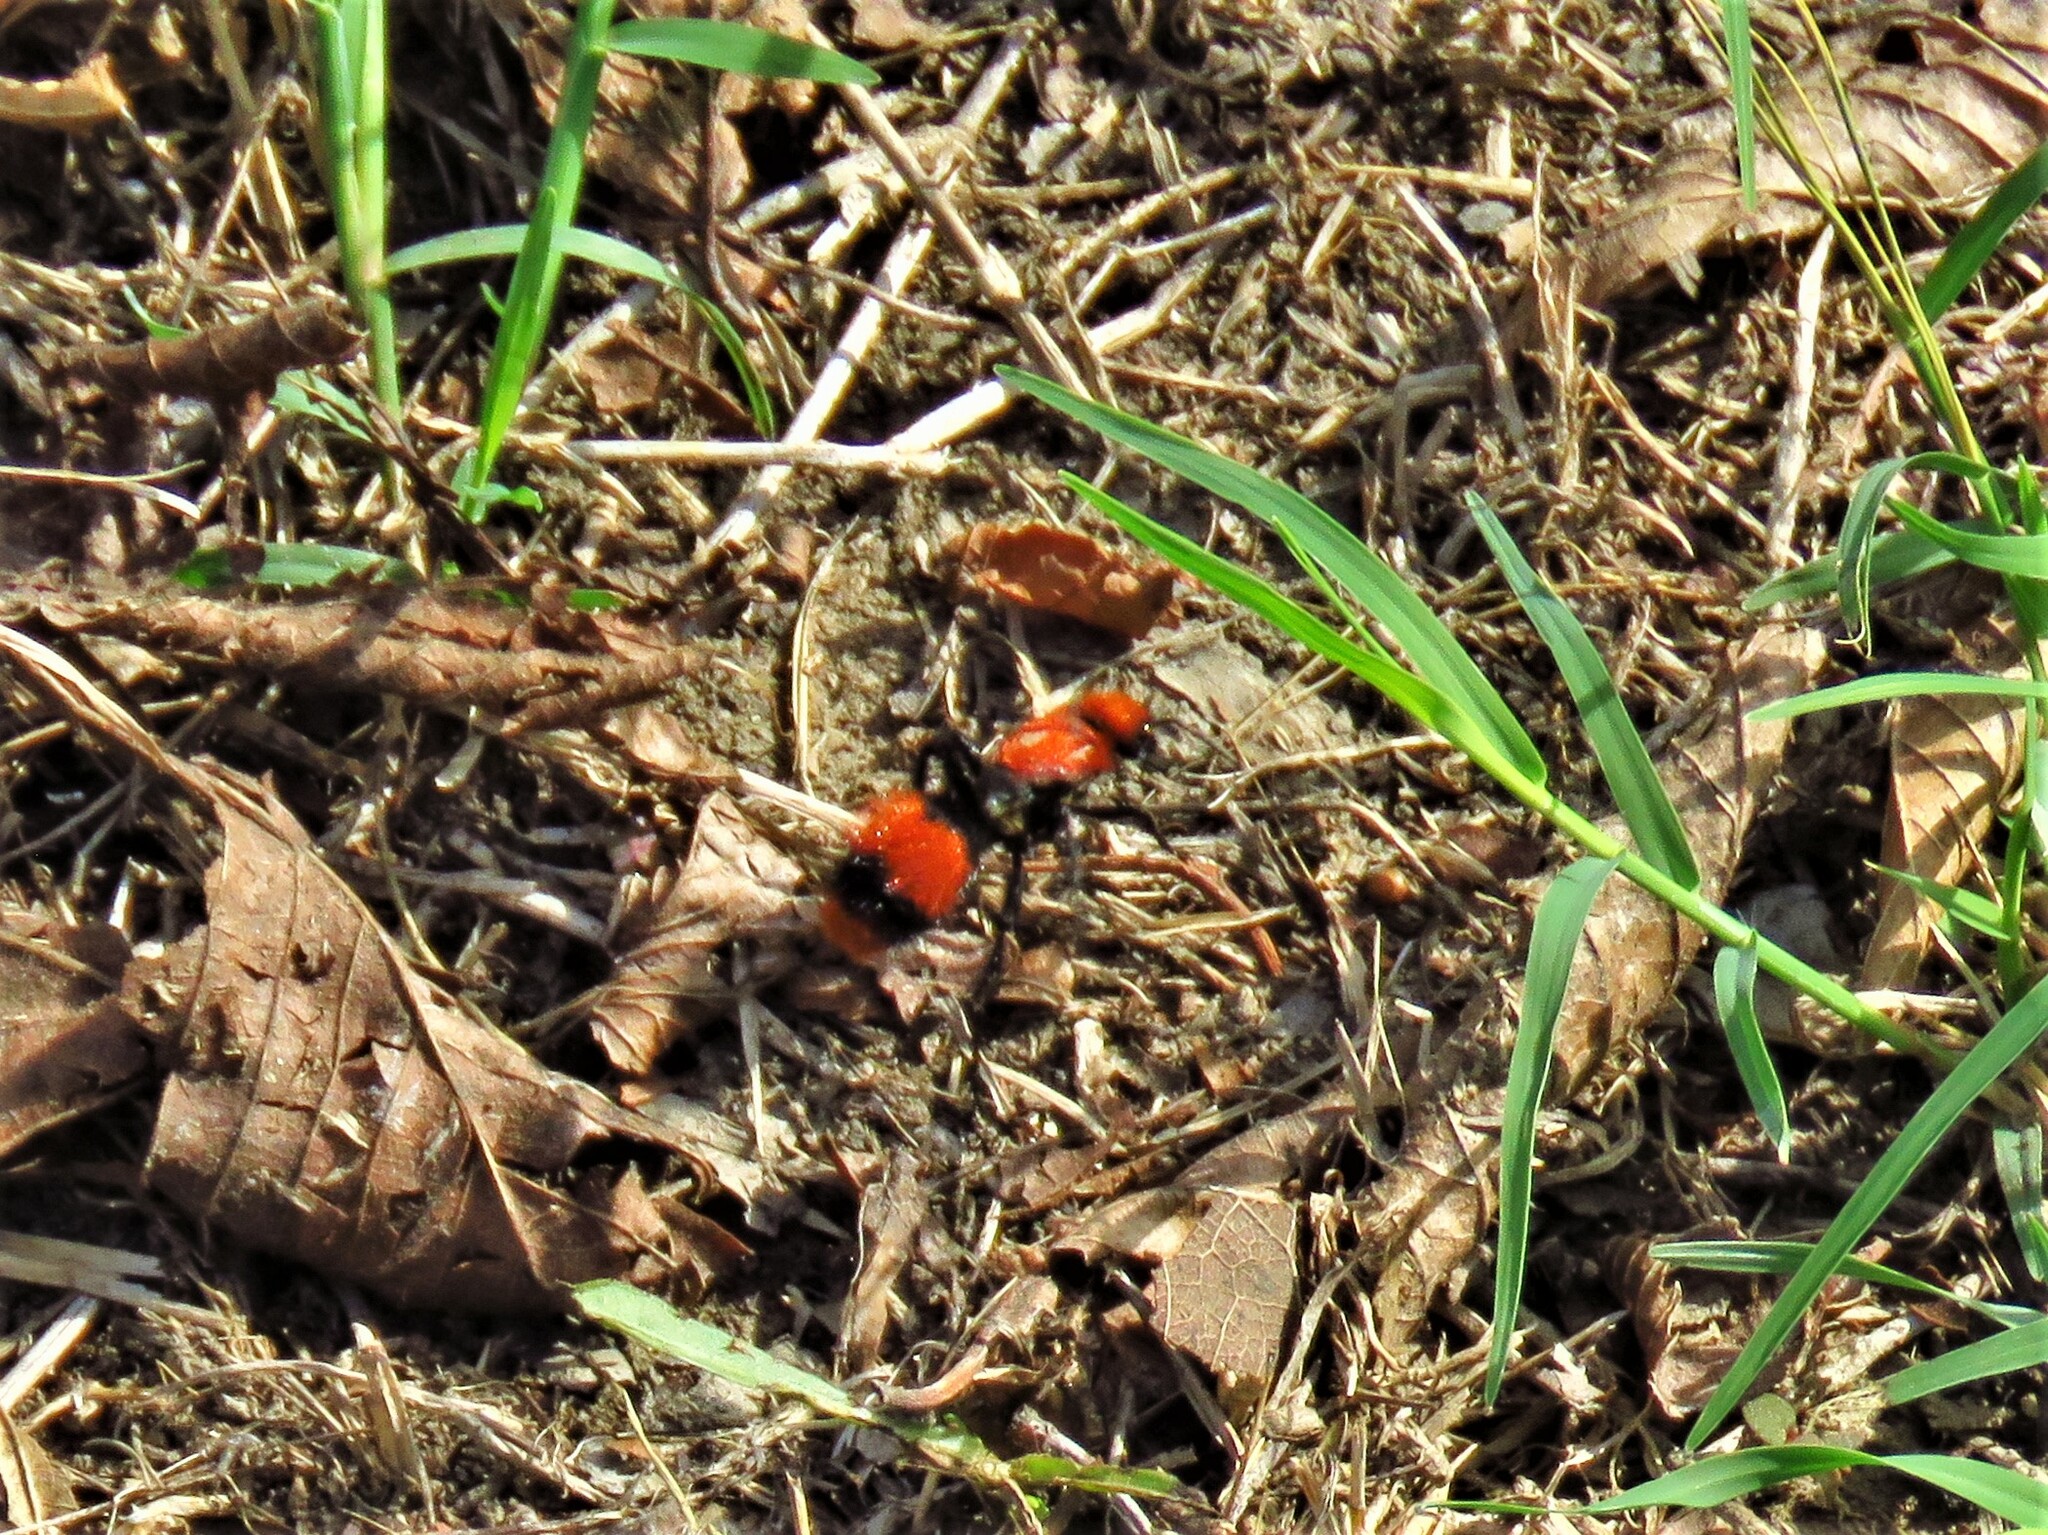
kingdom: Animalia
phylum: Arthropoda
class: Insecta
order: Hymenoptera
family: Mutillidae
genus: Dasymutilla
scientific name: Dasymutilla occidentalis
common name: Common eastern velvet ant
